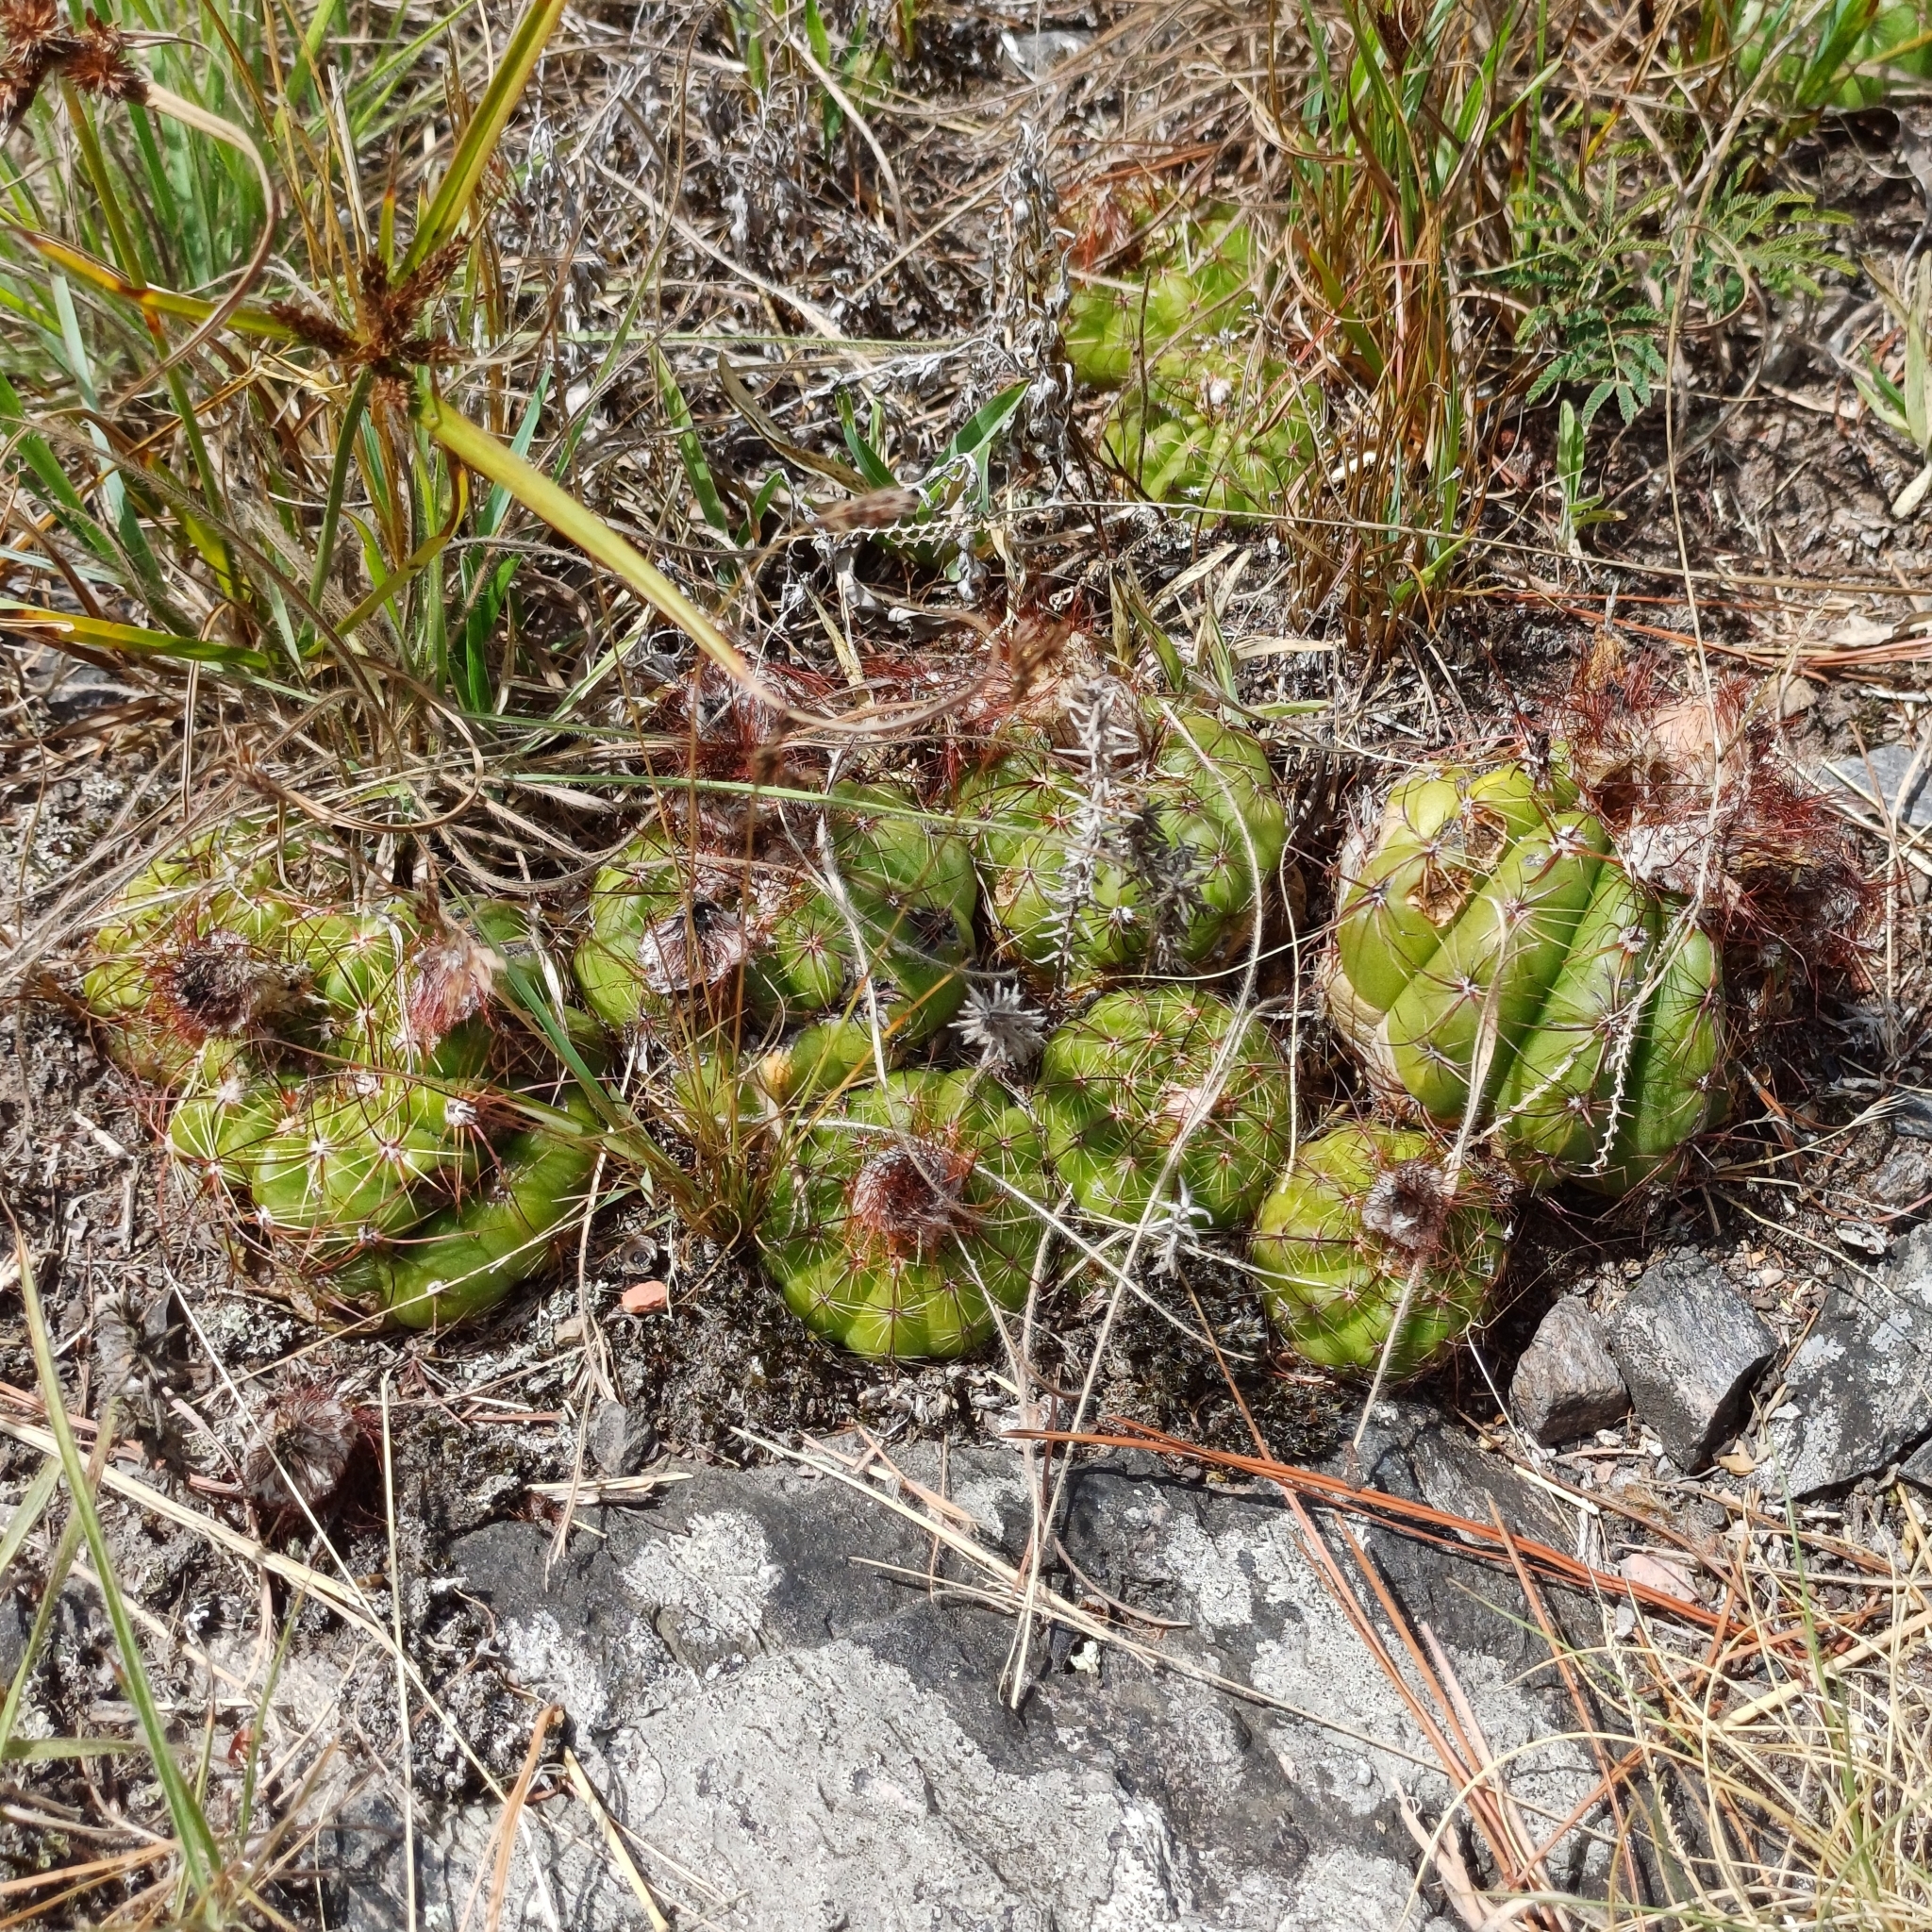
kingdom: Plantae
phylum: Tracheophyta
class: Magnoliopsida
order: Caryophyllales
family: Cactaceae
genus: Parodia
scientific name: Parodia ottonis
